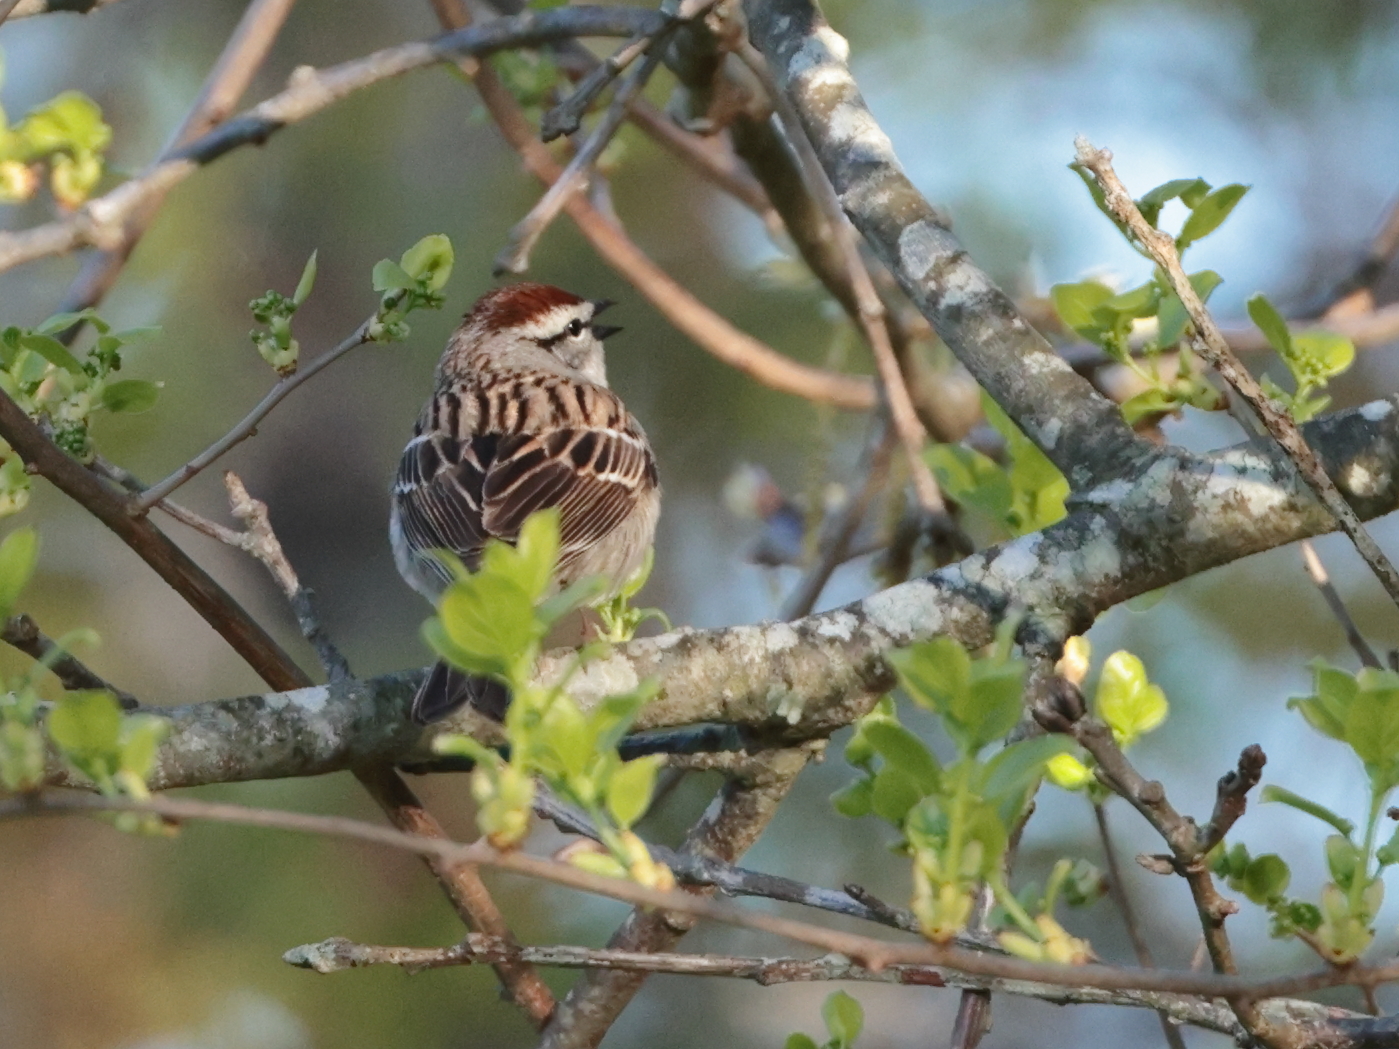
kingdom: Animalia
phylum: Chordata
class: Aves
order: Passeriformes
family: Passerellidae
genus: Spizella
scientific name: Spizella passerina
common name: Chipping sparrow
